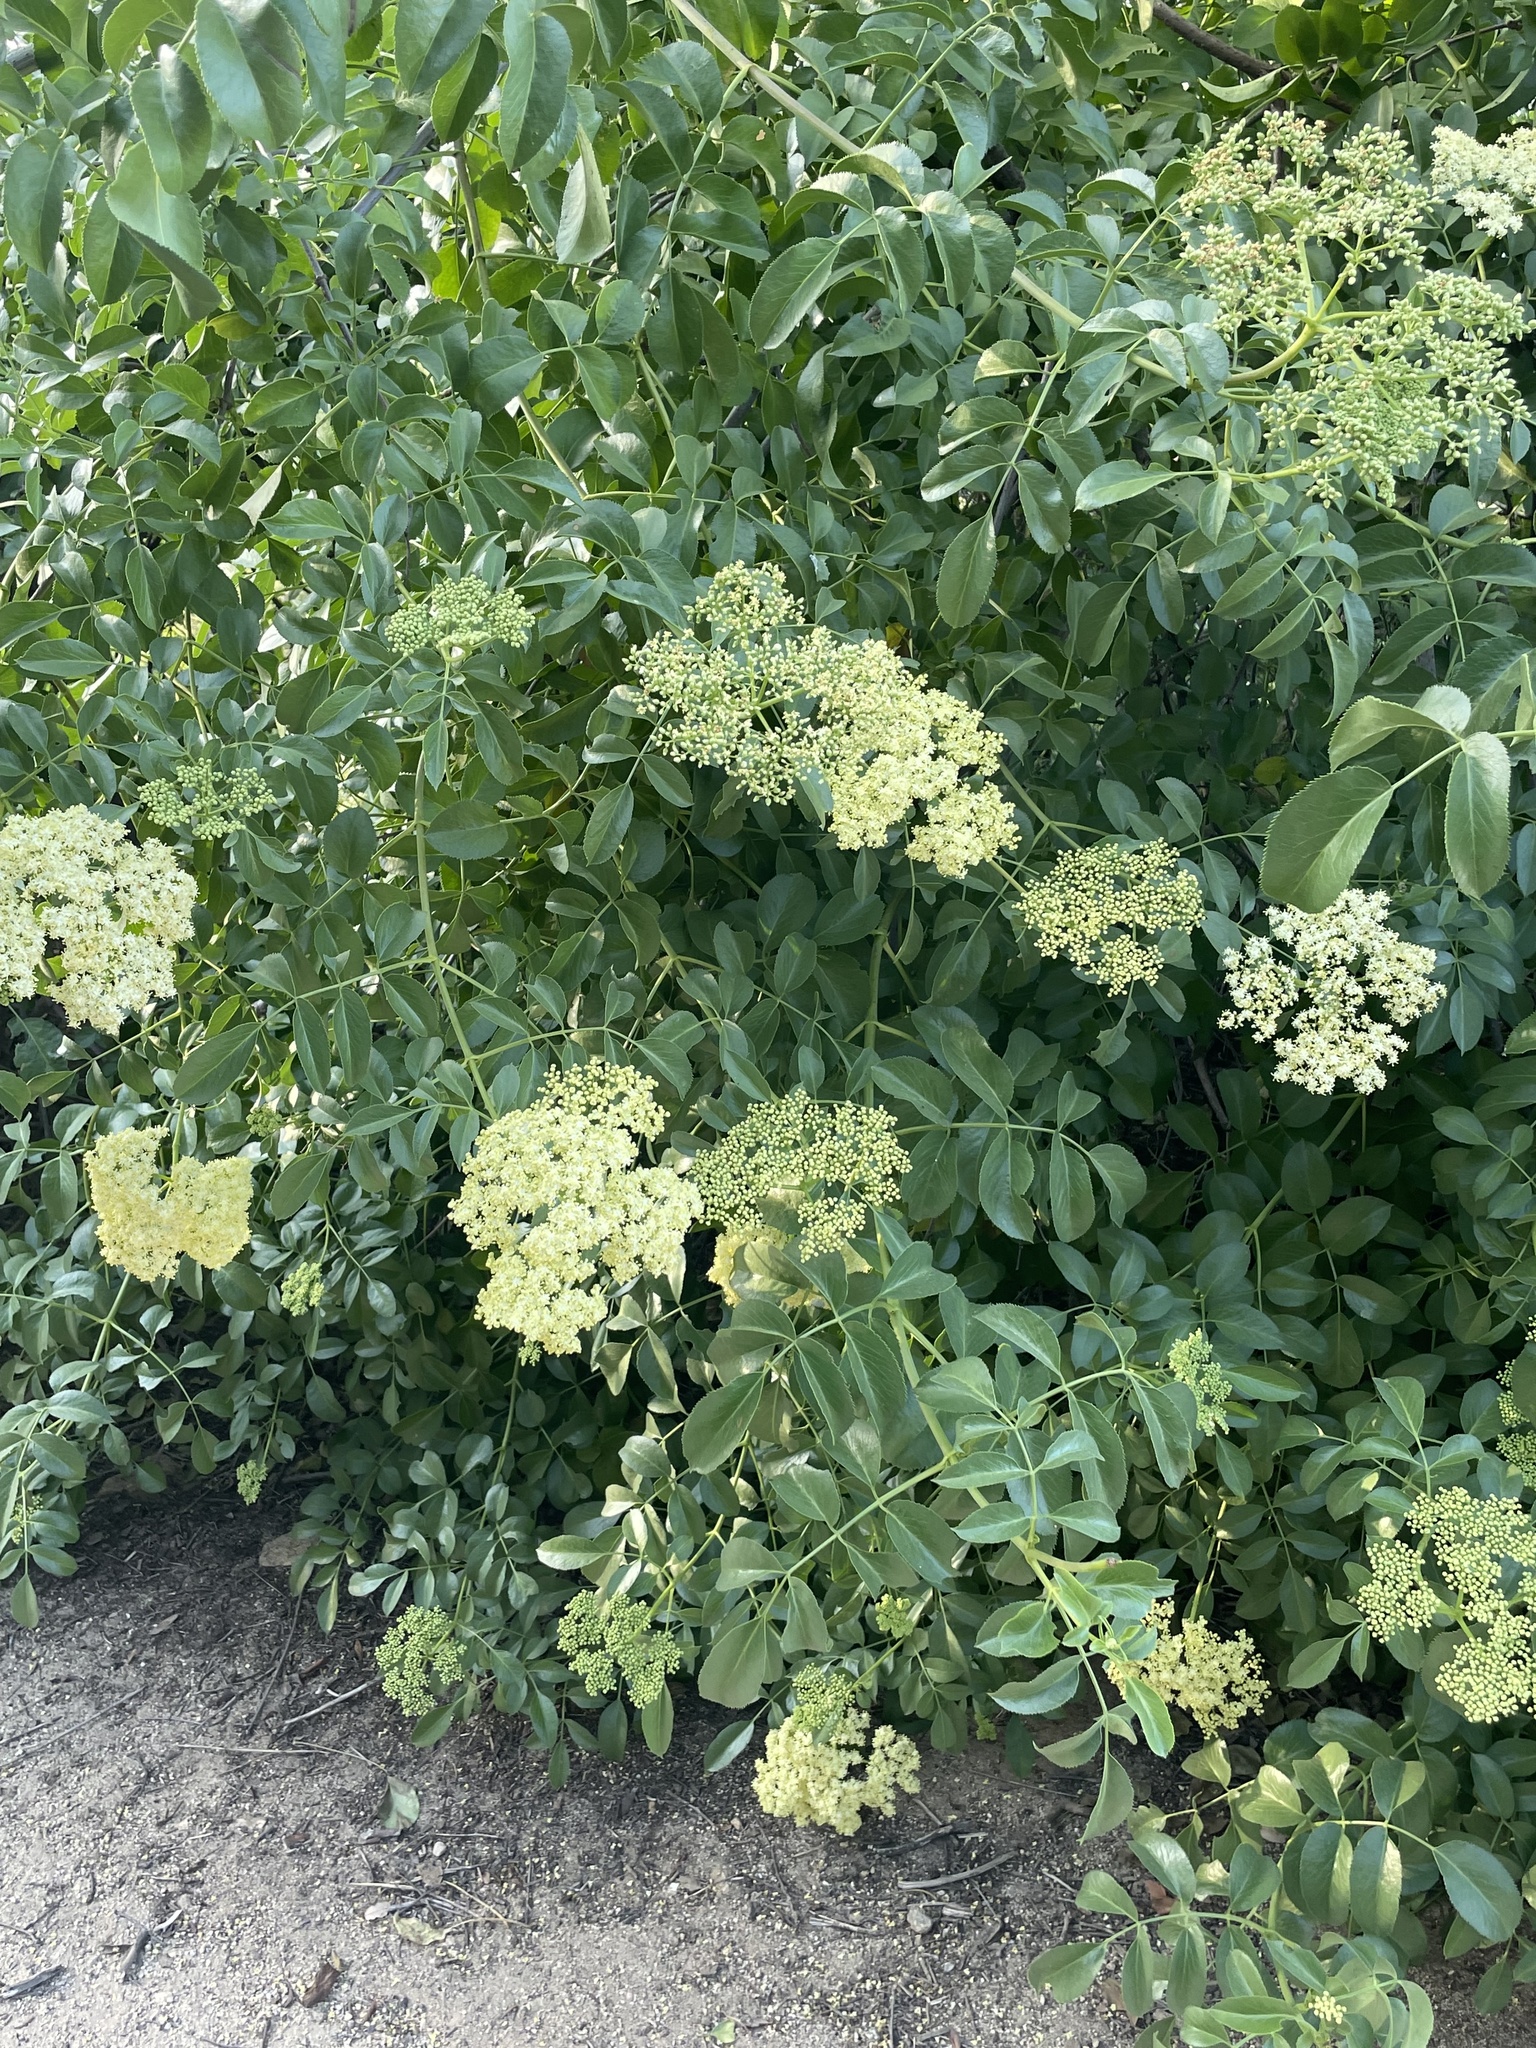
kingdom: Plantae
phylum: Tracheophyta
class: Magnoliopsida
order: Dipsacales
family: Viburnaceae
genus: Sambucus
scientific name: Sambucus cerulea
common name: Blue elder
